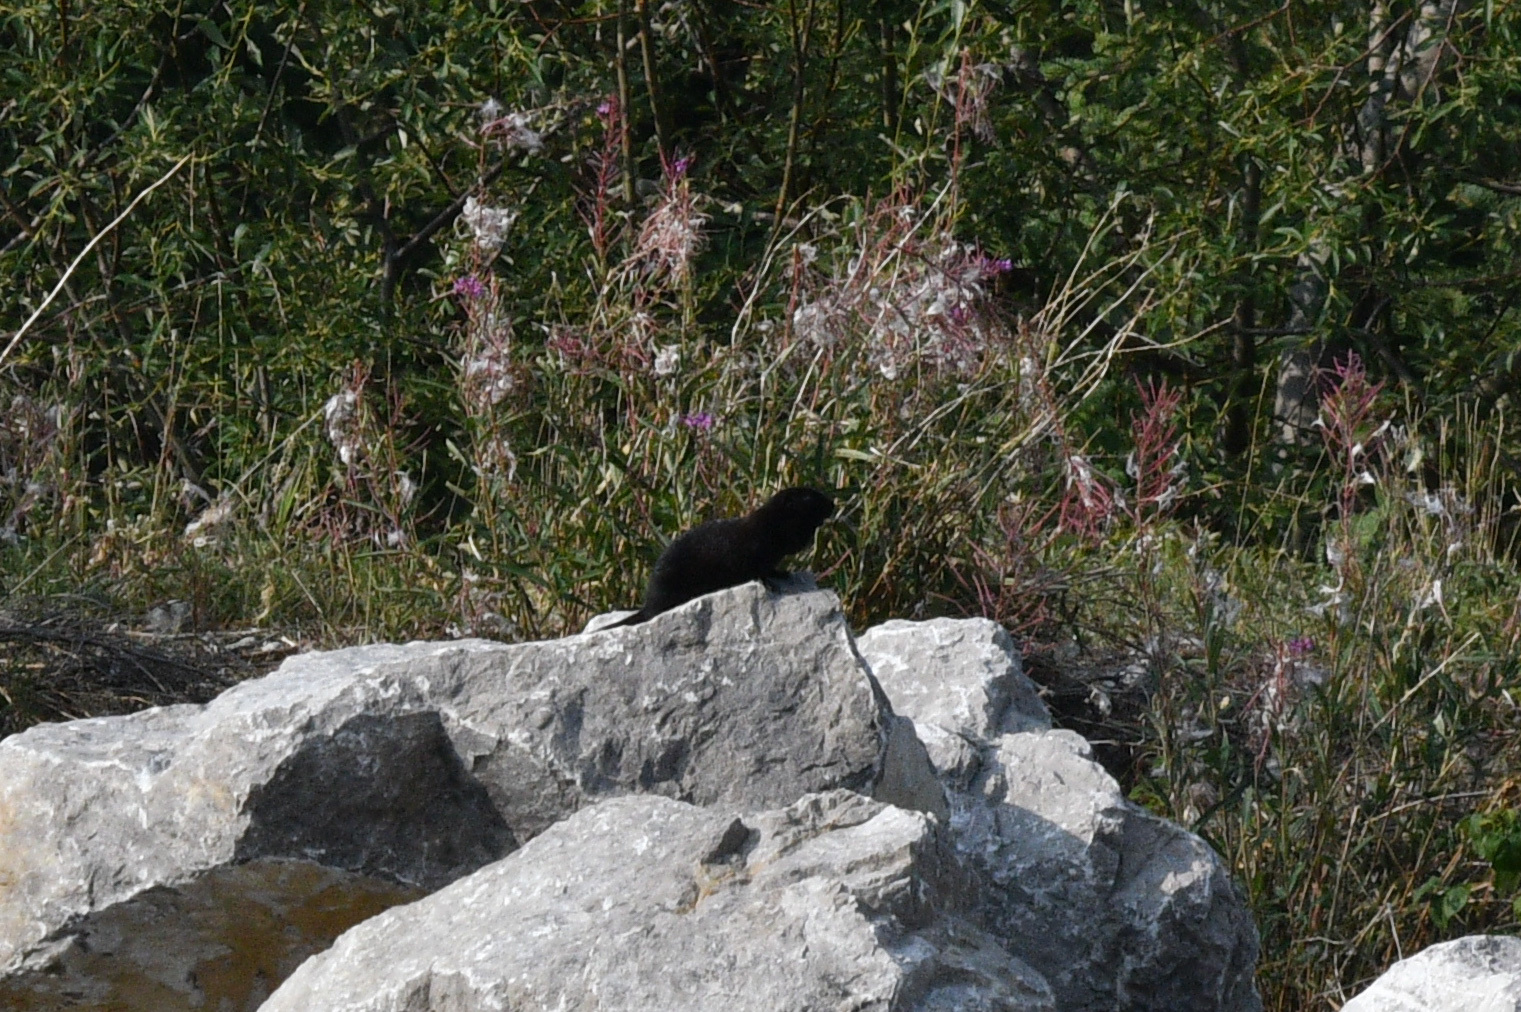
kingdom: Animalia
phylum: Chordata
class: Mammalia
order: Rodentia
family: Sciuridae
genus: Urocitellus
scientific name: Urocitellus parryii
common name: Arctic ground squirrel
